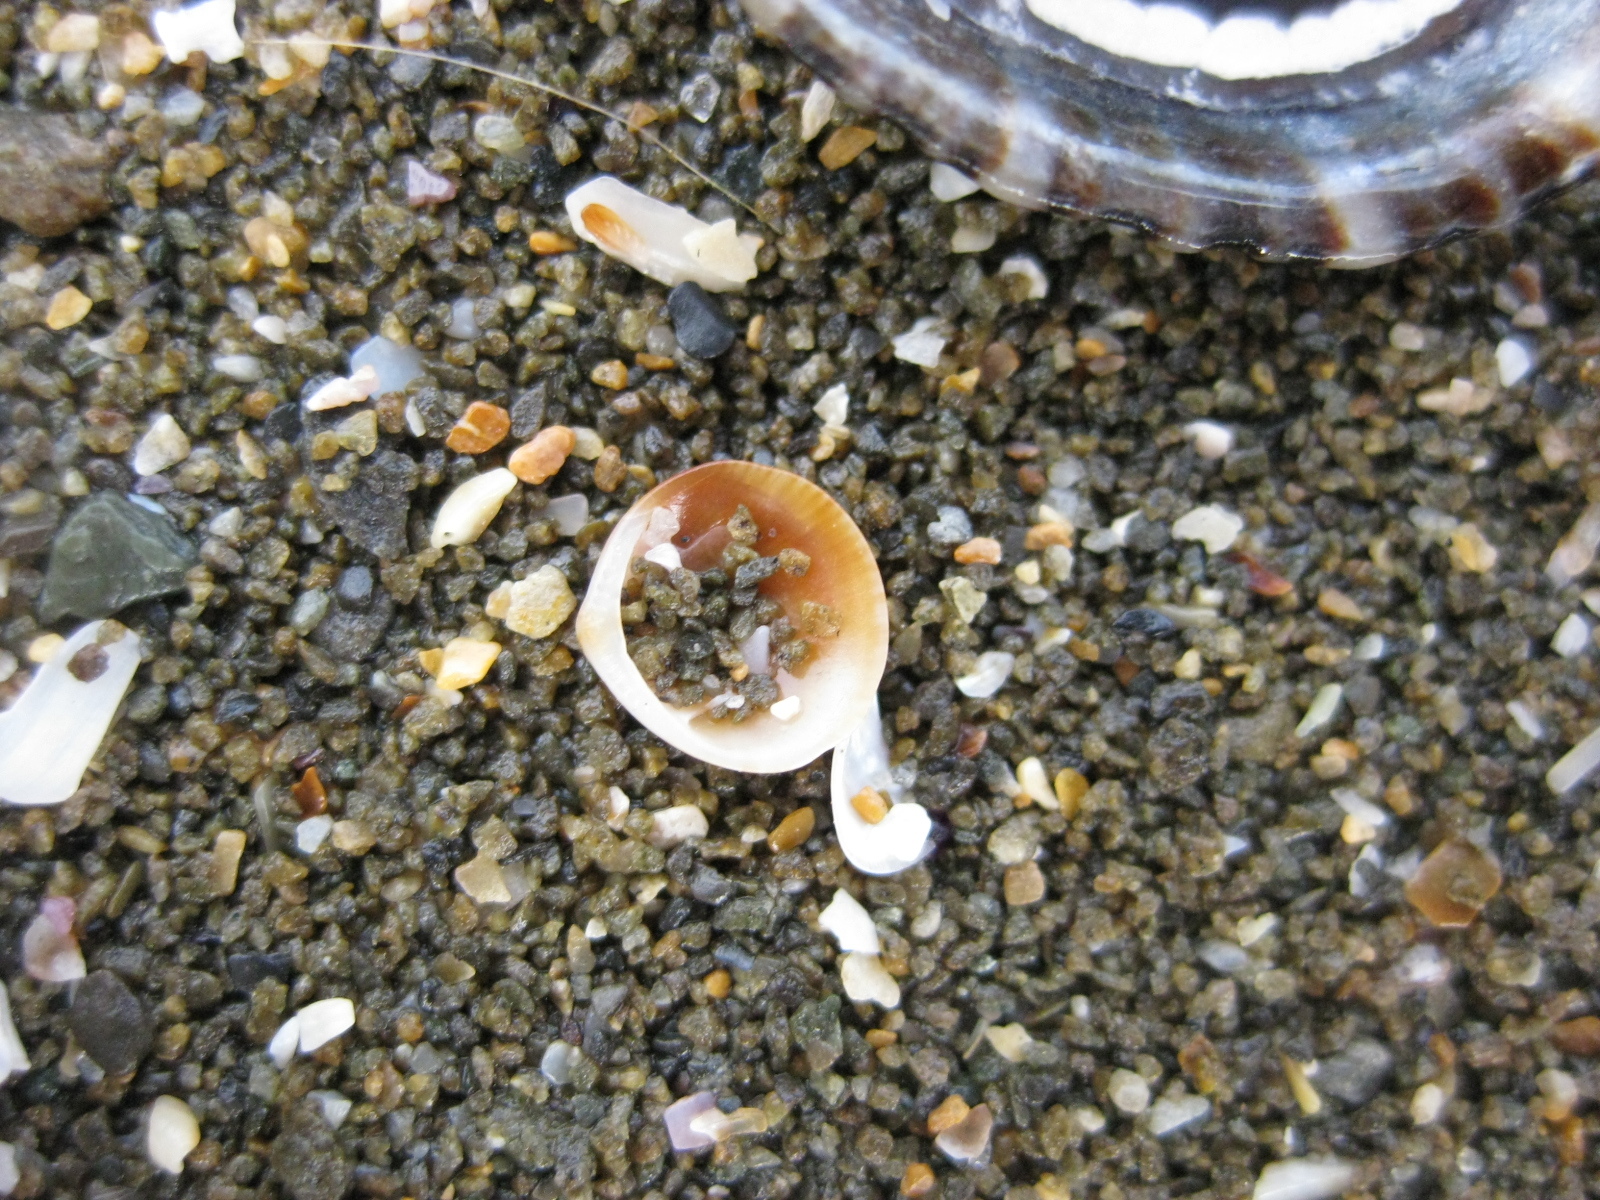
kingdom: Animalia
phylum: Mollusca
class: Bivalvia
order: Arcida
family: Glycymerididae
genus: Glycymeris
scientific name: Glycymeris modesta
